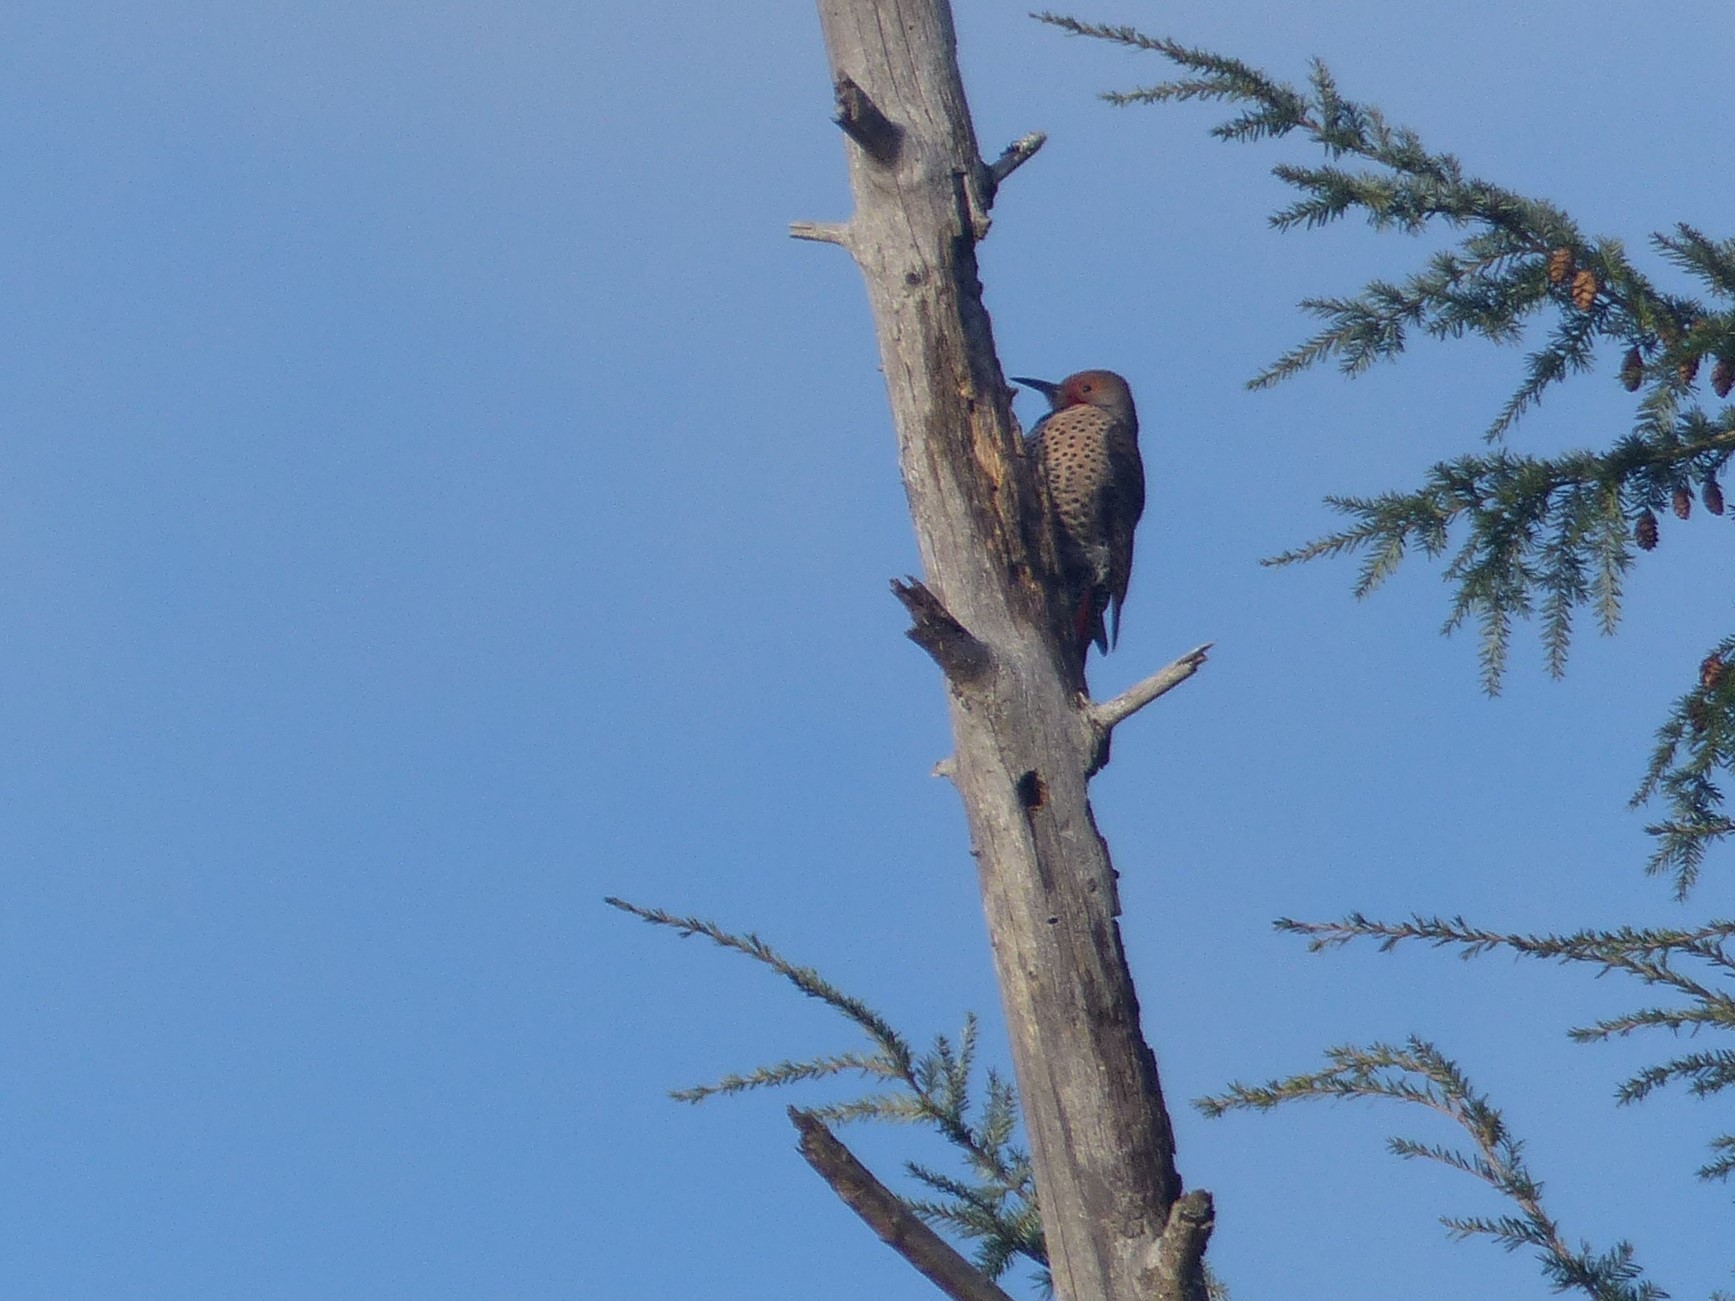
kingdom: Animalia
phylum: Chordata
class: Aves
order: Piciformes
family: Picidae
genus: Colaptes
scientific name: Colaptes auratus
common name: Northern flicker
